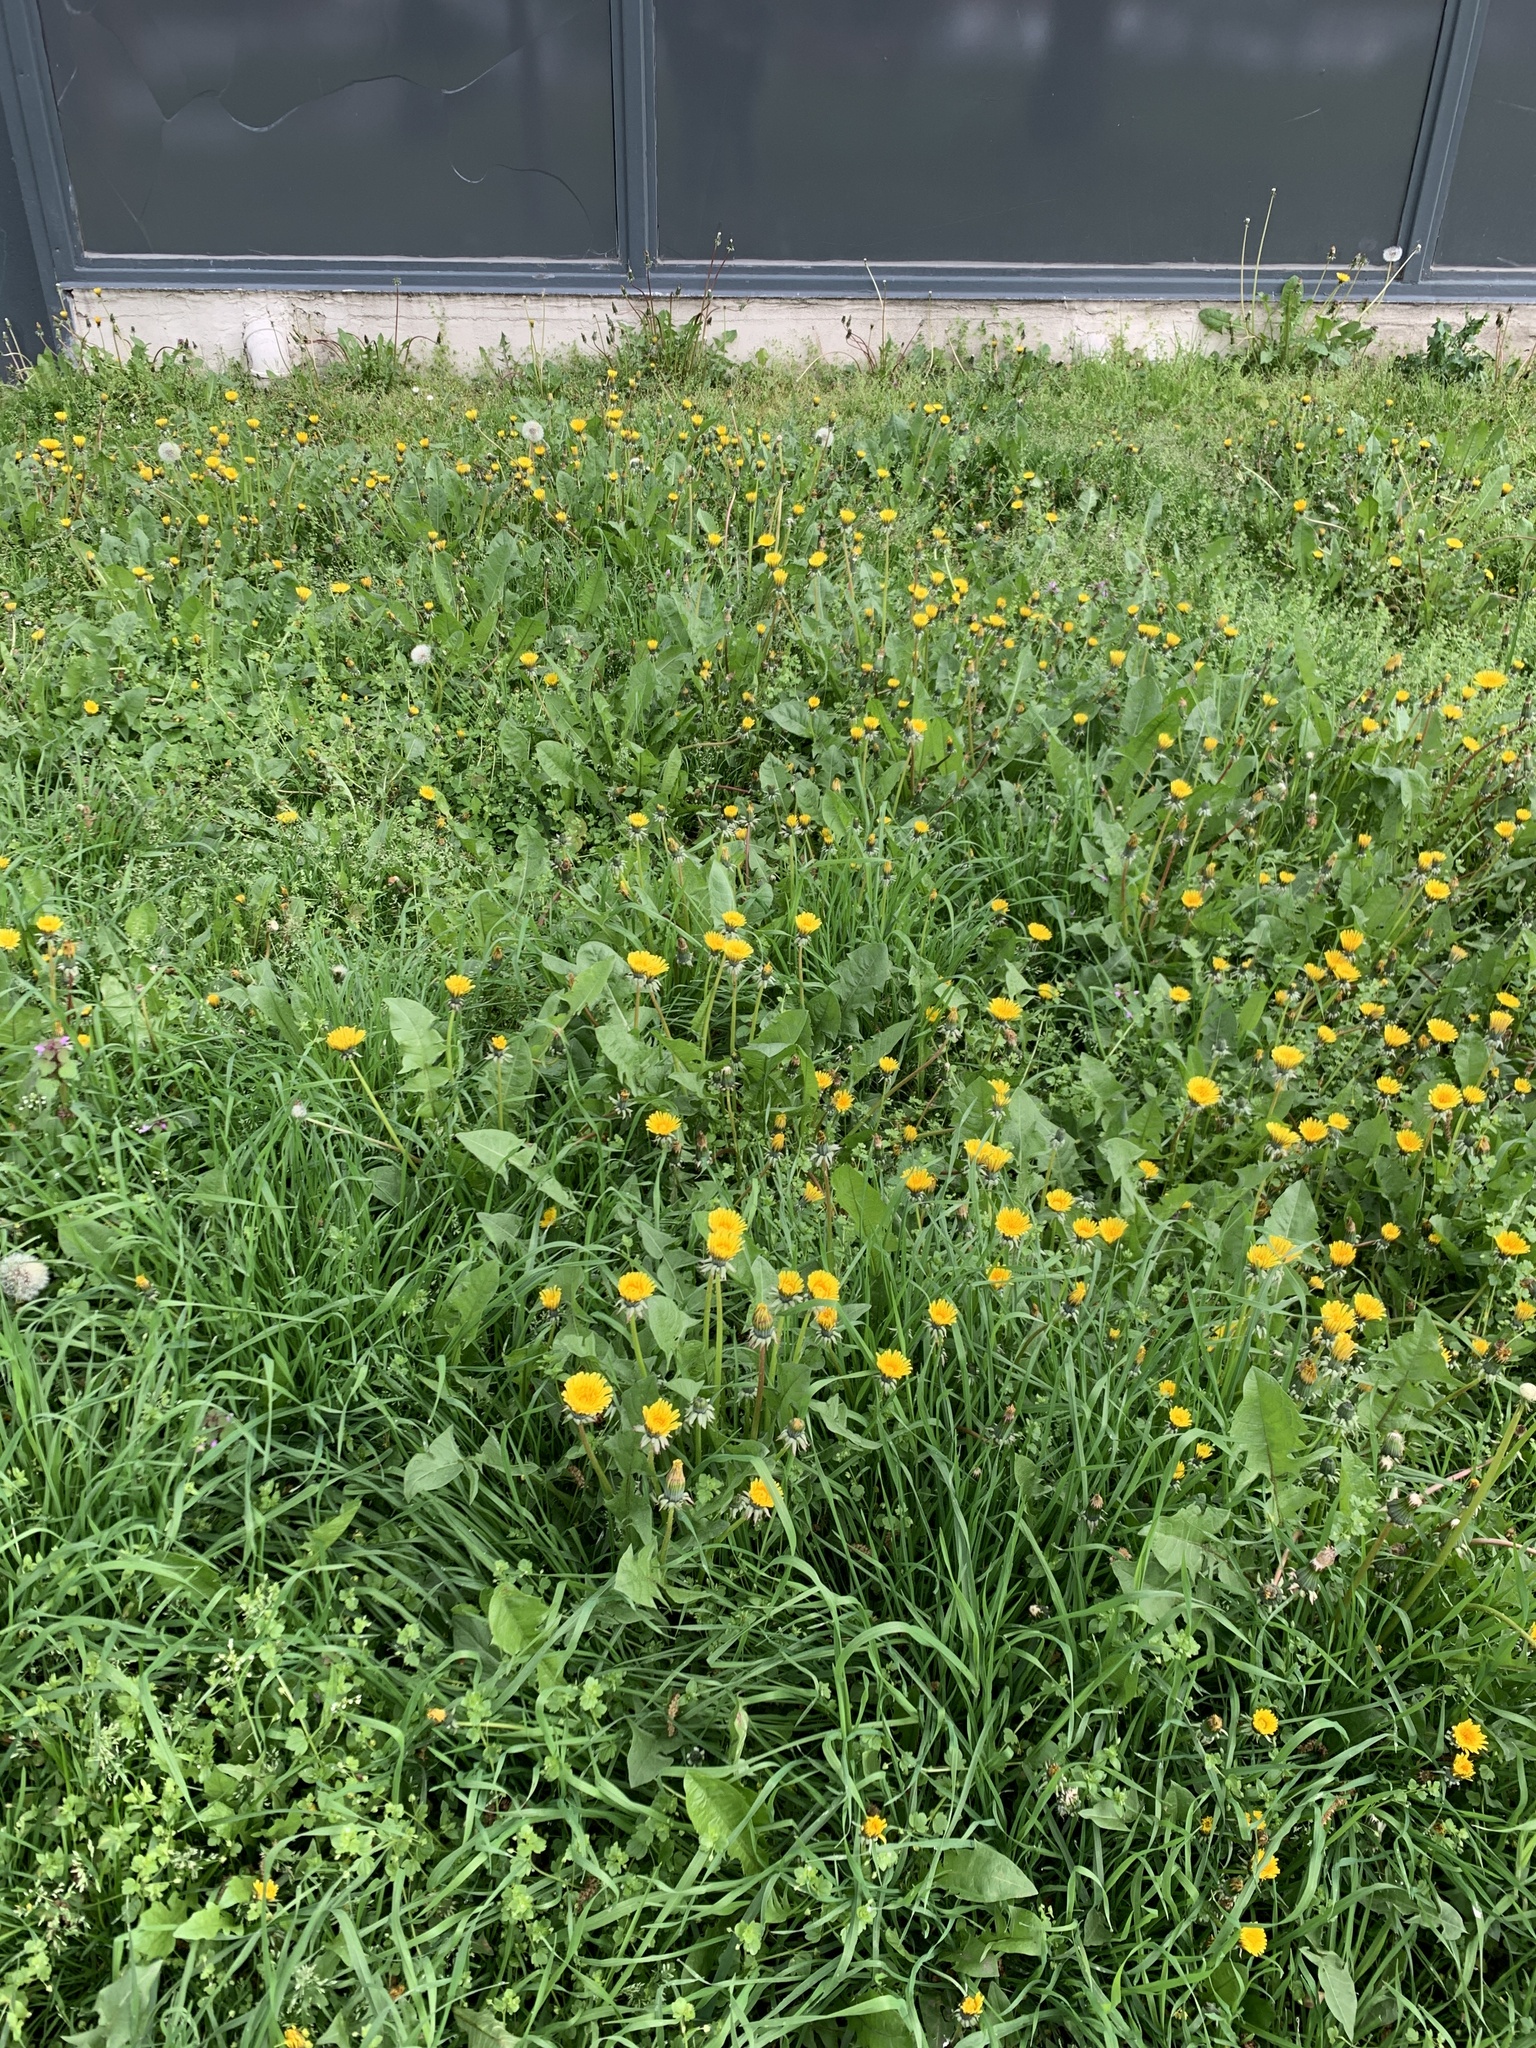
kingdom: Plantae
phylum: Tracheophyta
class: Magnoliopsida
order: Asterales
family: Asteraceae
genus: Taraxacum
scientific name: Taraxacum officinale
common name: Common dandelion
